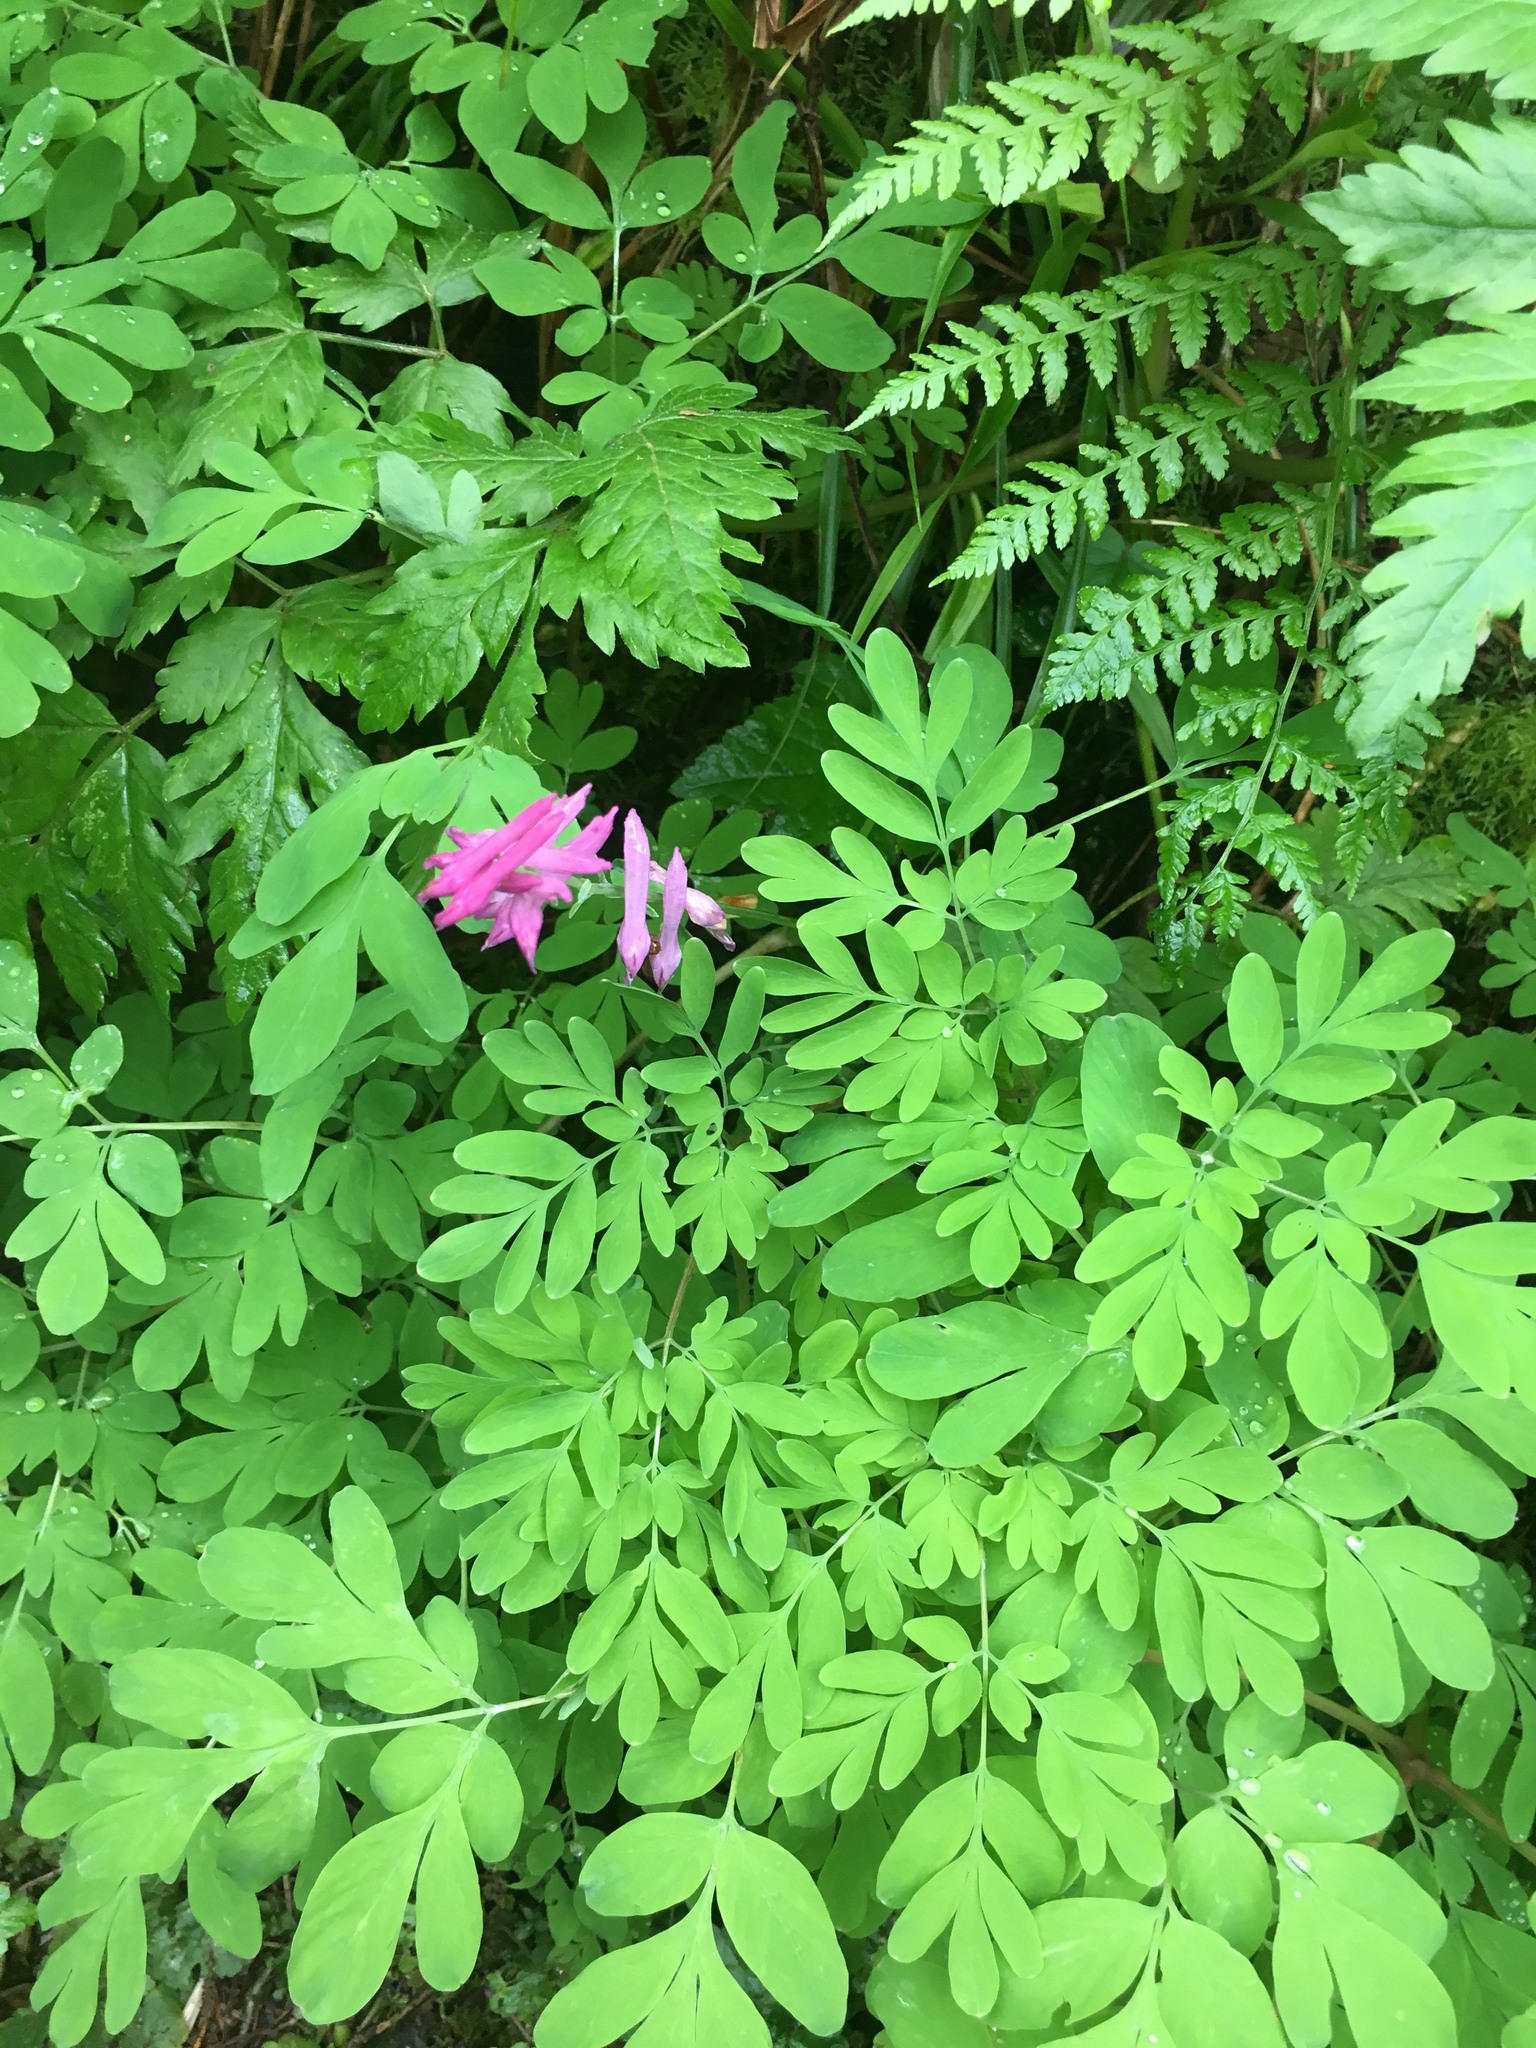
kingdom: Plantae
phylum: Tracheophyta
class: Magnoliopsida
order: Ranunculales
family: Papaveraceae
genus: Corydalis
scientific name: Corydalis scouleri
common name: Scouler's corydalis
